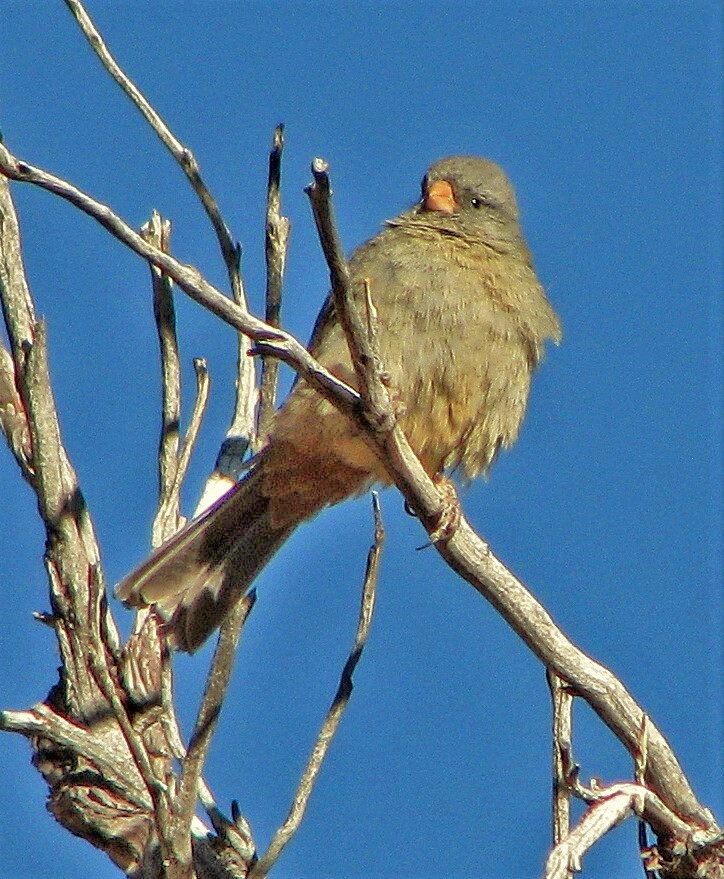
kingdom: Animalia
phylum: Chordata
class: Aves
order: Passeriformes
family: Thraupidae
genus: Catamenia
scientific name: Catamenia inornata
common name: Plain-colored seedeater
